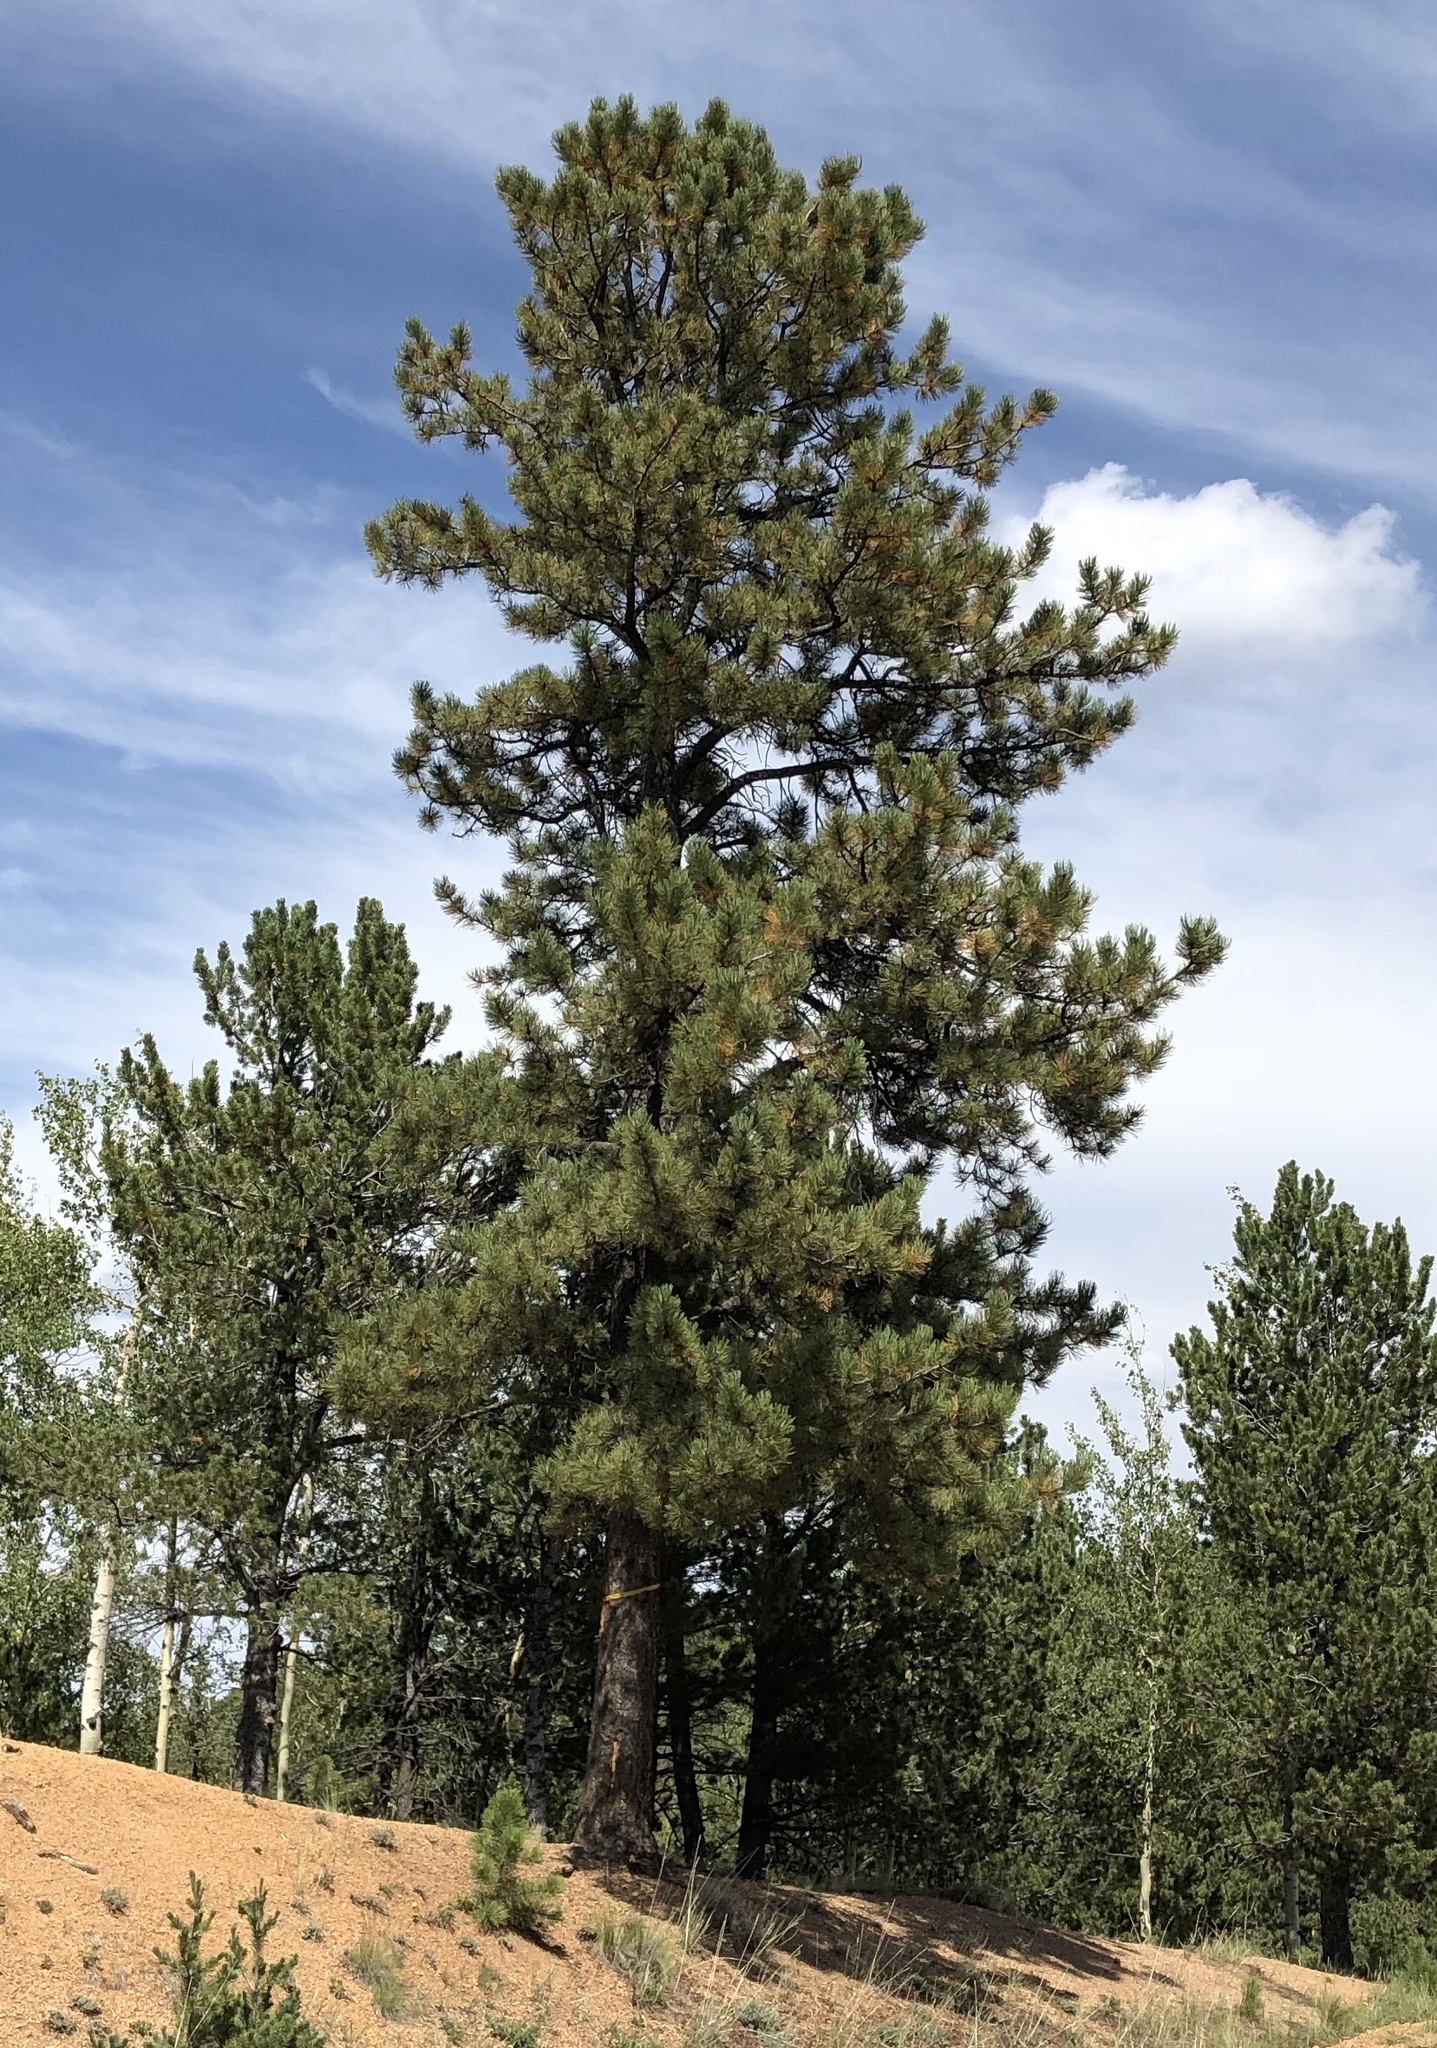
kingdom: Plantae
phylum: Tracheophyta
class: Pinopsida
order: Pinales
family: Pinaceae
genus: Pinus
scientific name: Pinus ponderosa
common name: Western yellow-pine
